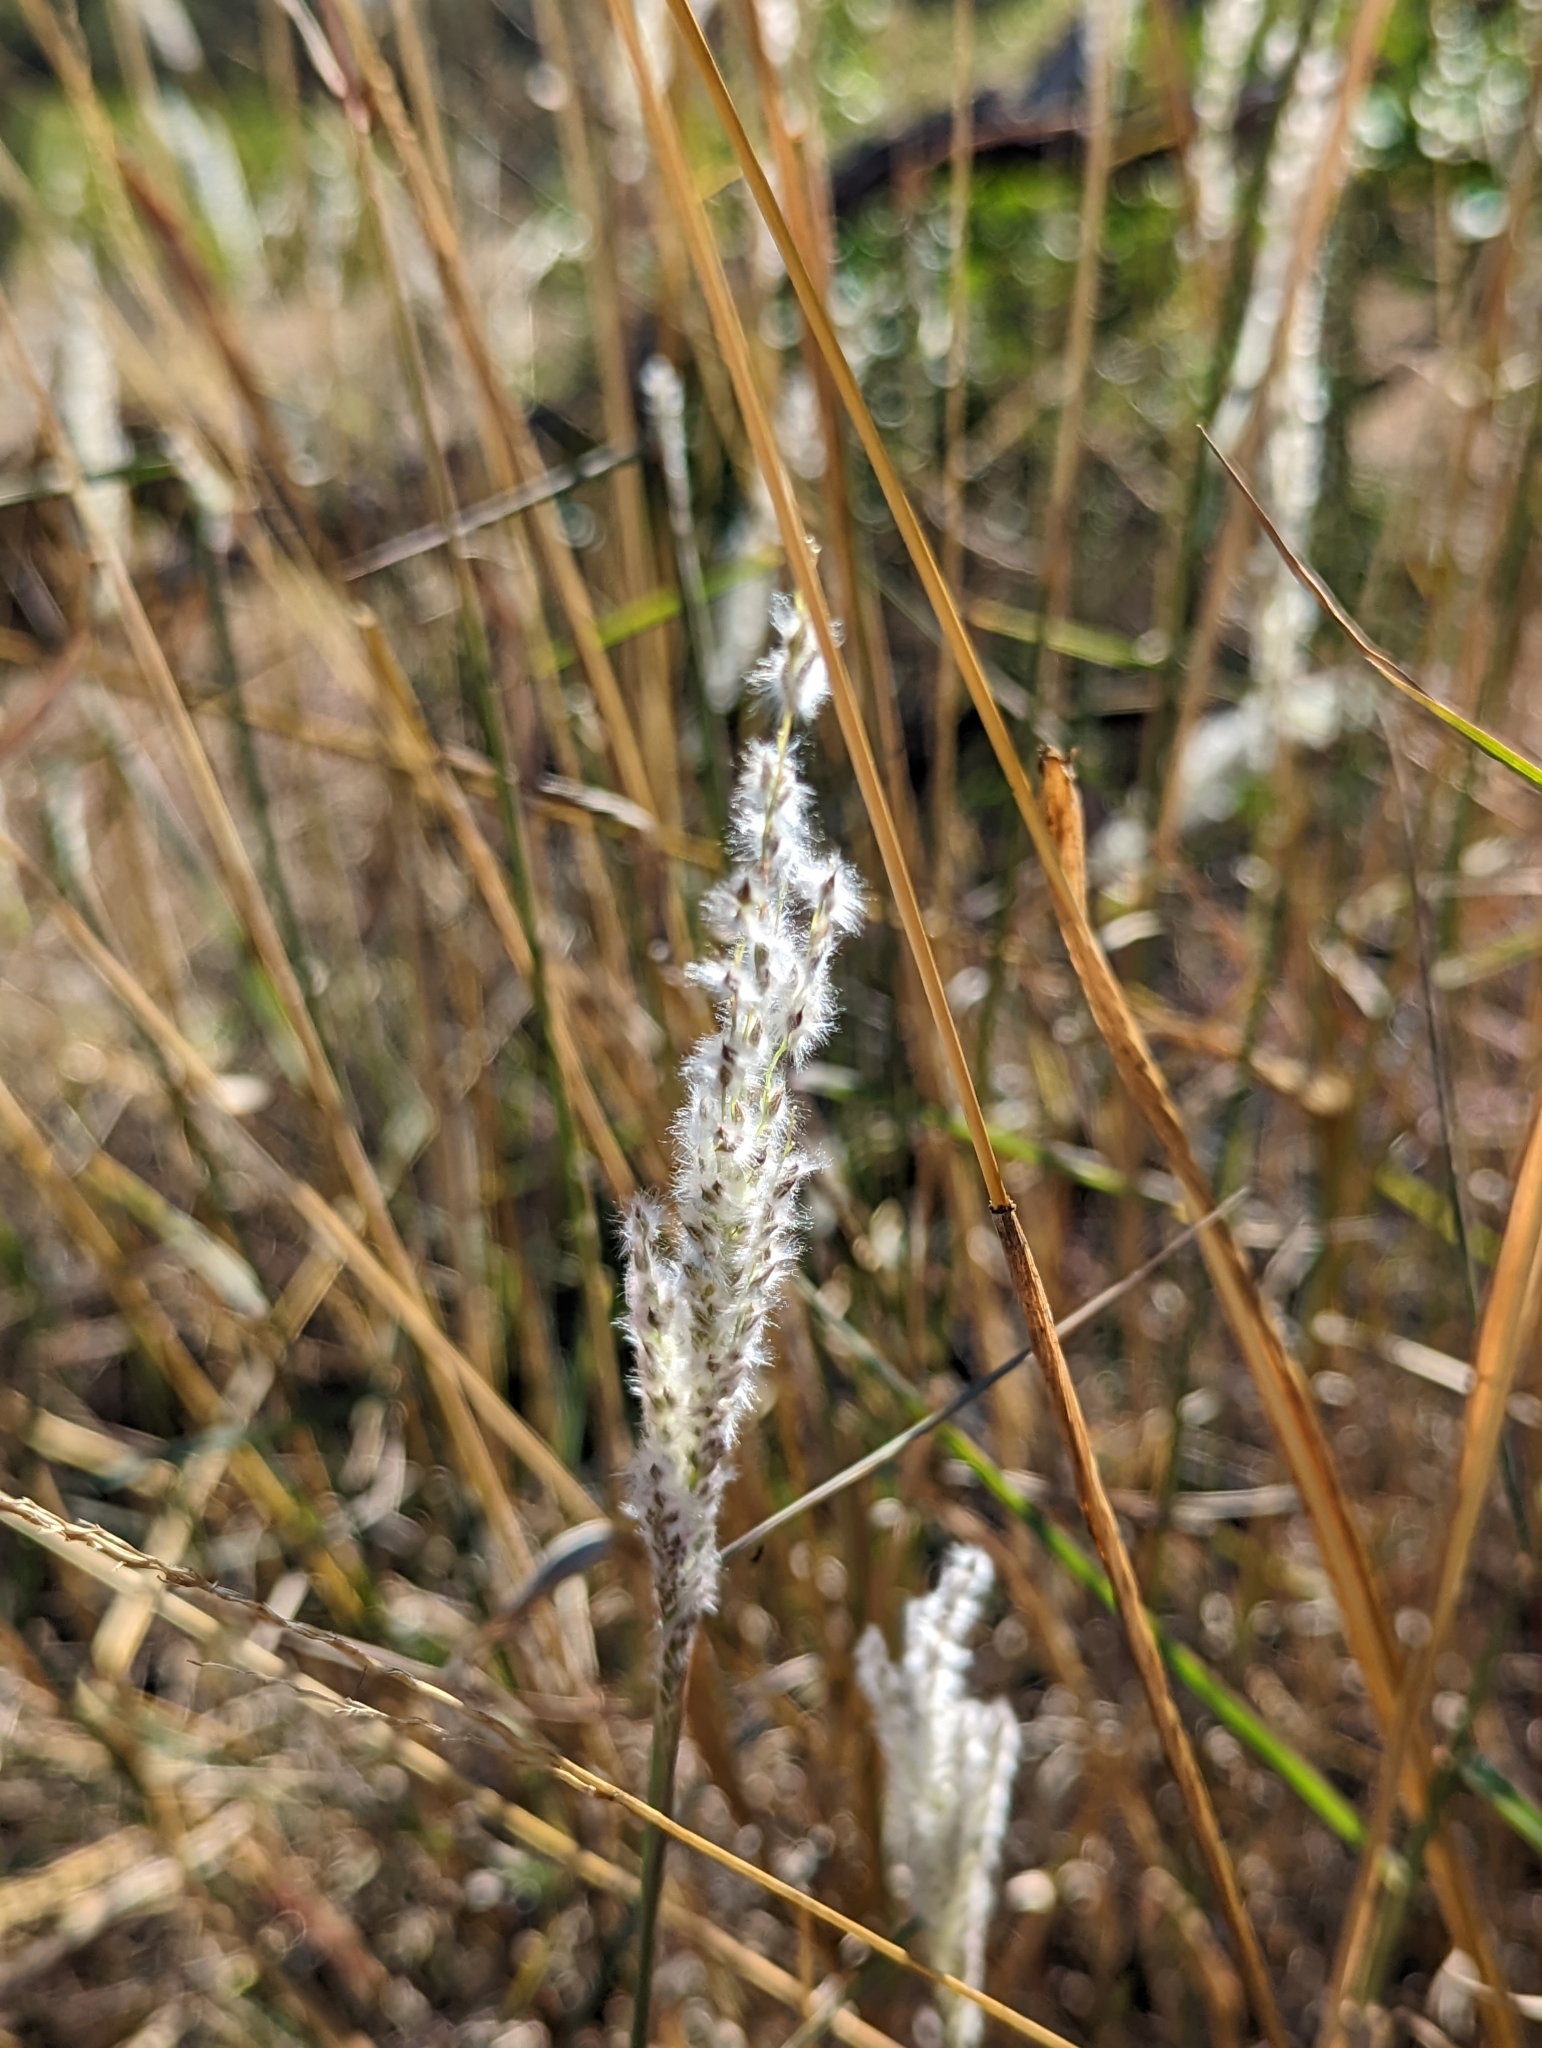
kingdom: Plantae
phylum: Tracheophyta
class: Liliopsida
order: Poales
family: Poaceae
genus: Digitaria
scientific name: Digitaria californica
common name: Arizona cottontop
